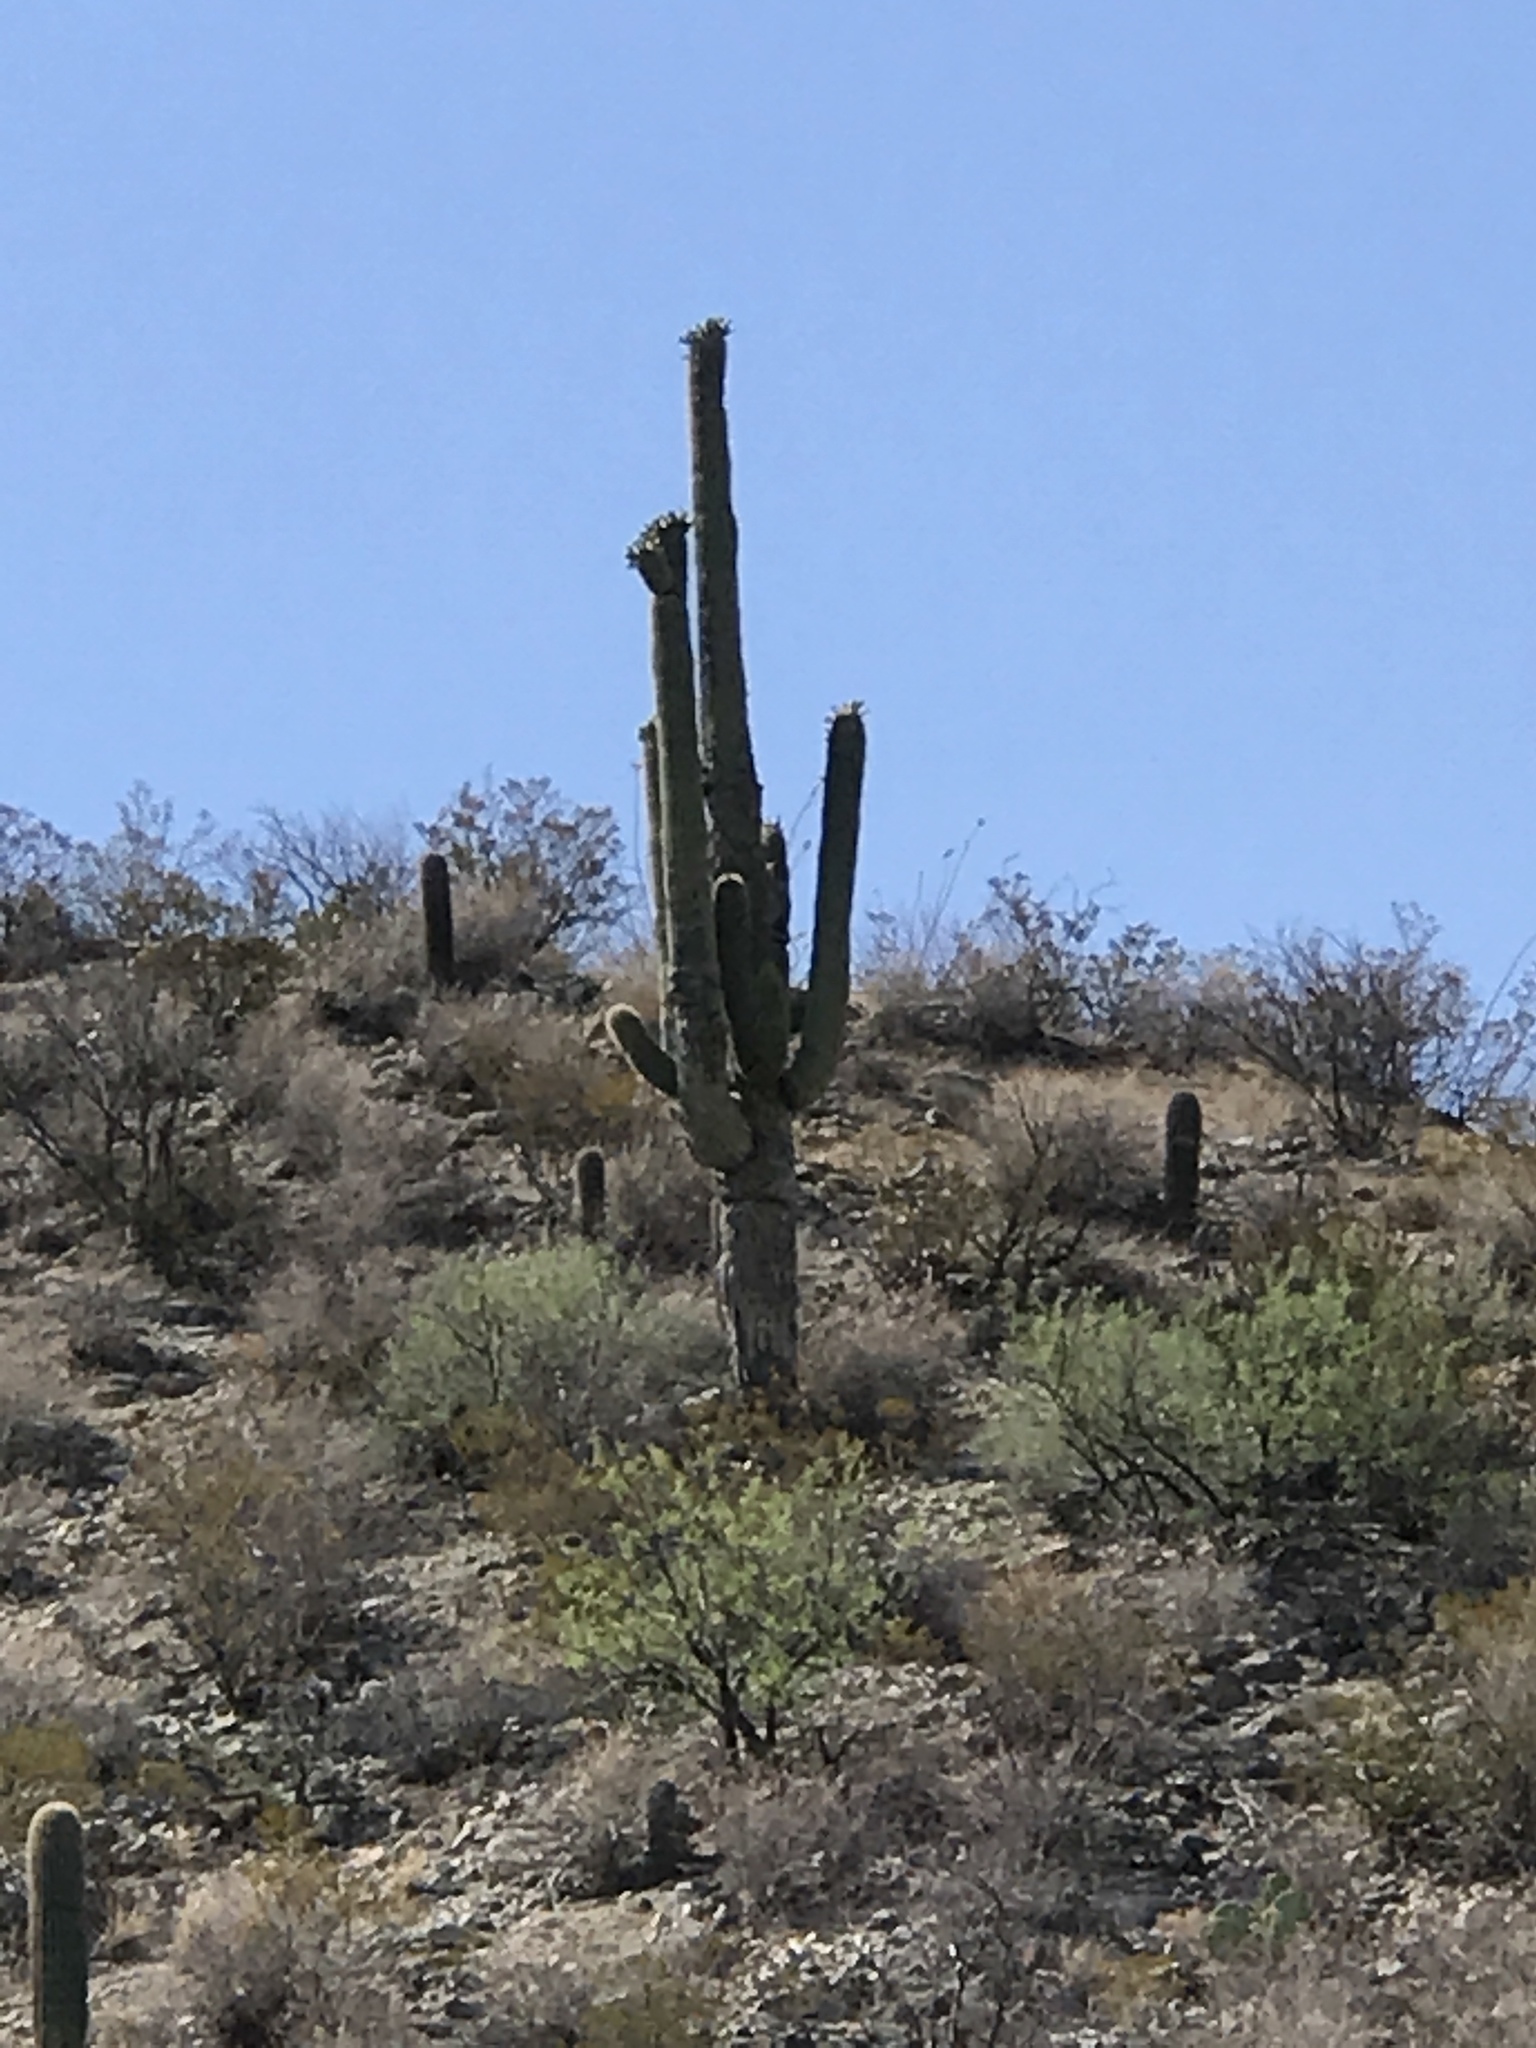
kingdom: Plantae
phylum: Tracheophyta
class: Magnoliopsida
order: Caryophyllales
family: Cactaceae
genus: Carnegiea
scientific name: Carnegiea gigantea
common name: Saguaro
